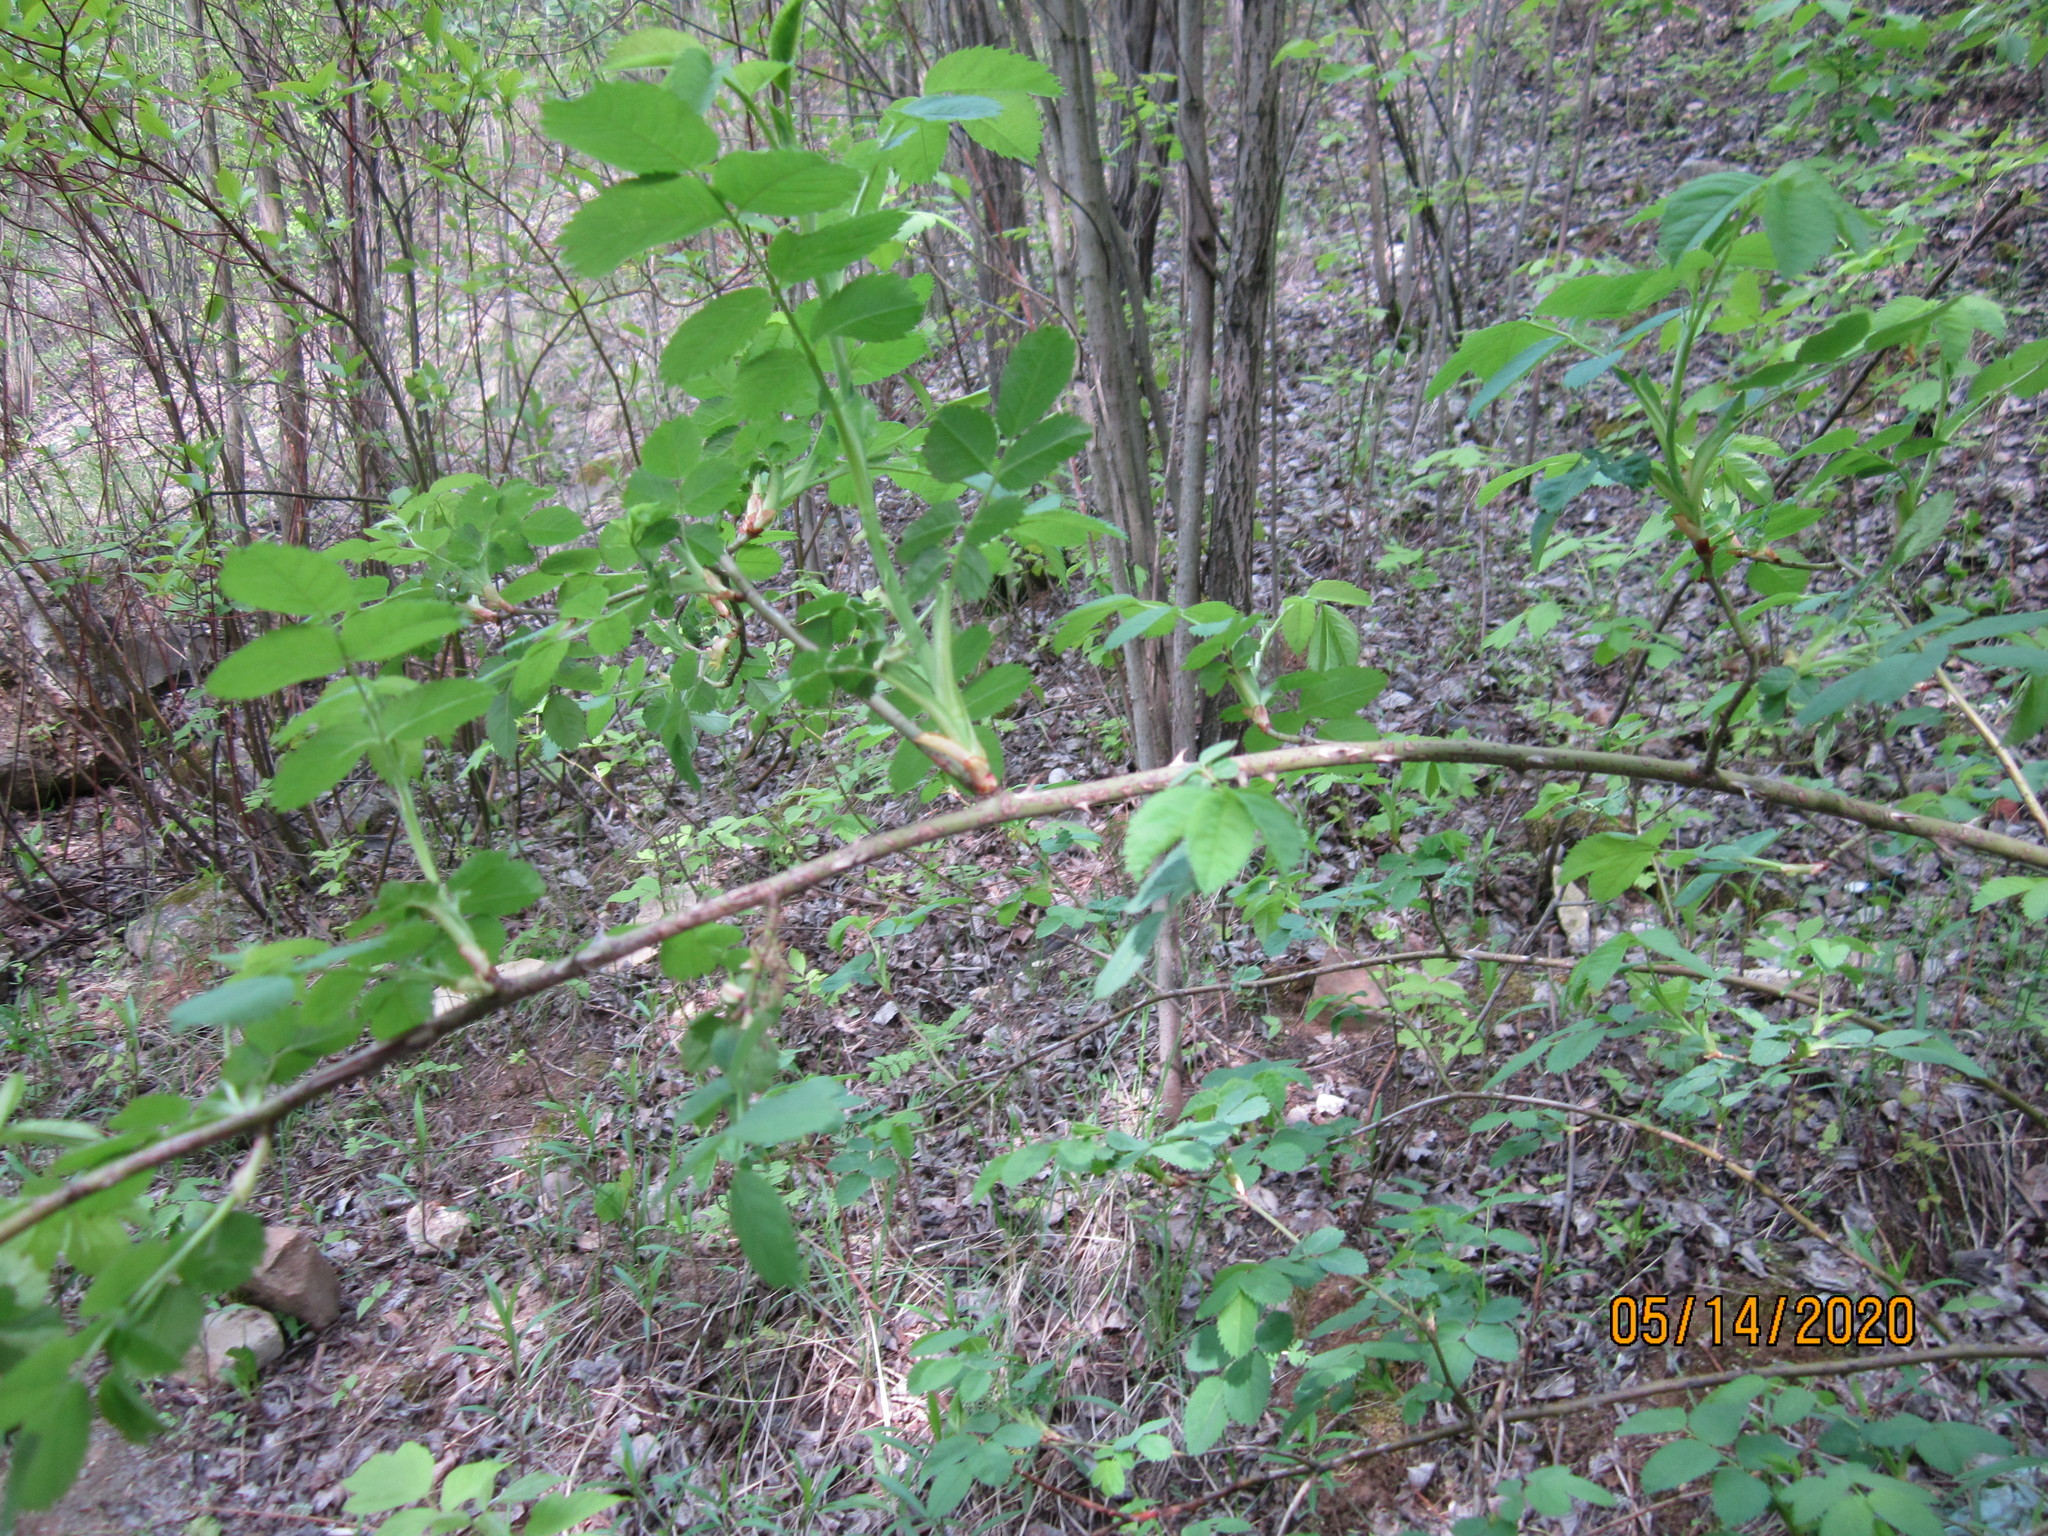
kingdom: Plantae
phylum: Tracheophyta
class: Magnoliopsida
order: Rosales
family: Rosaceae
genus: Rosa
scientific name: Rosa
